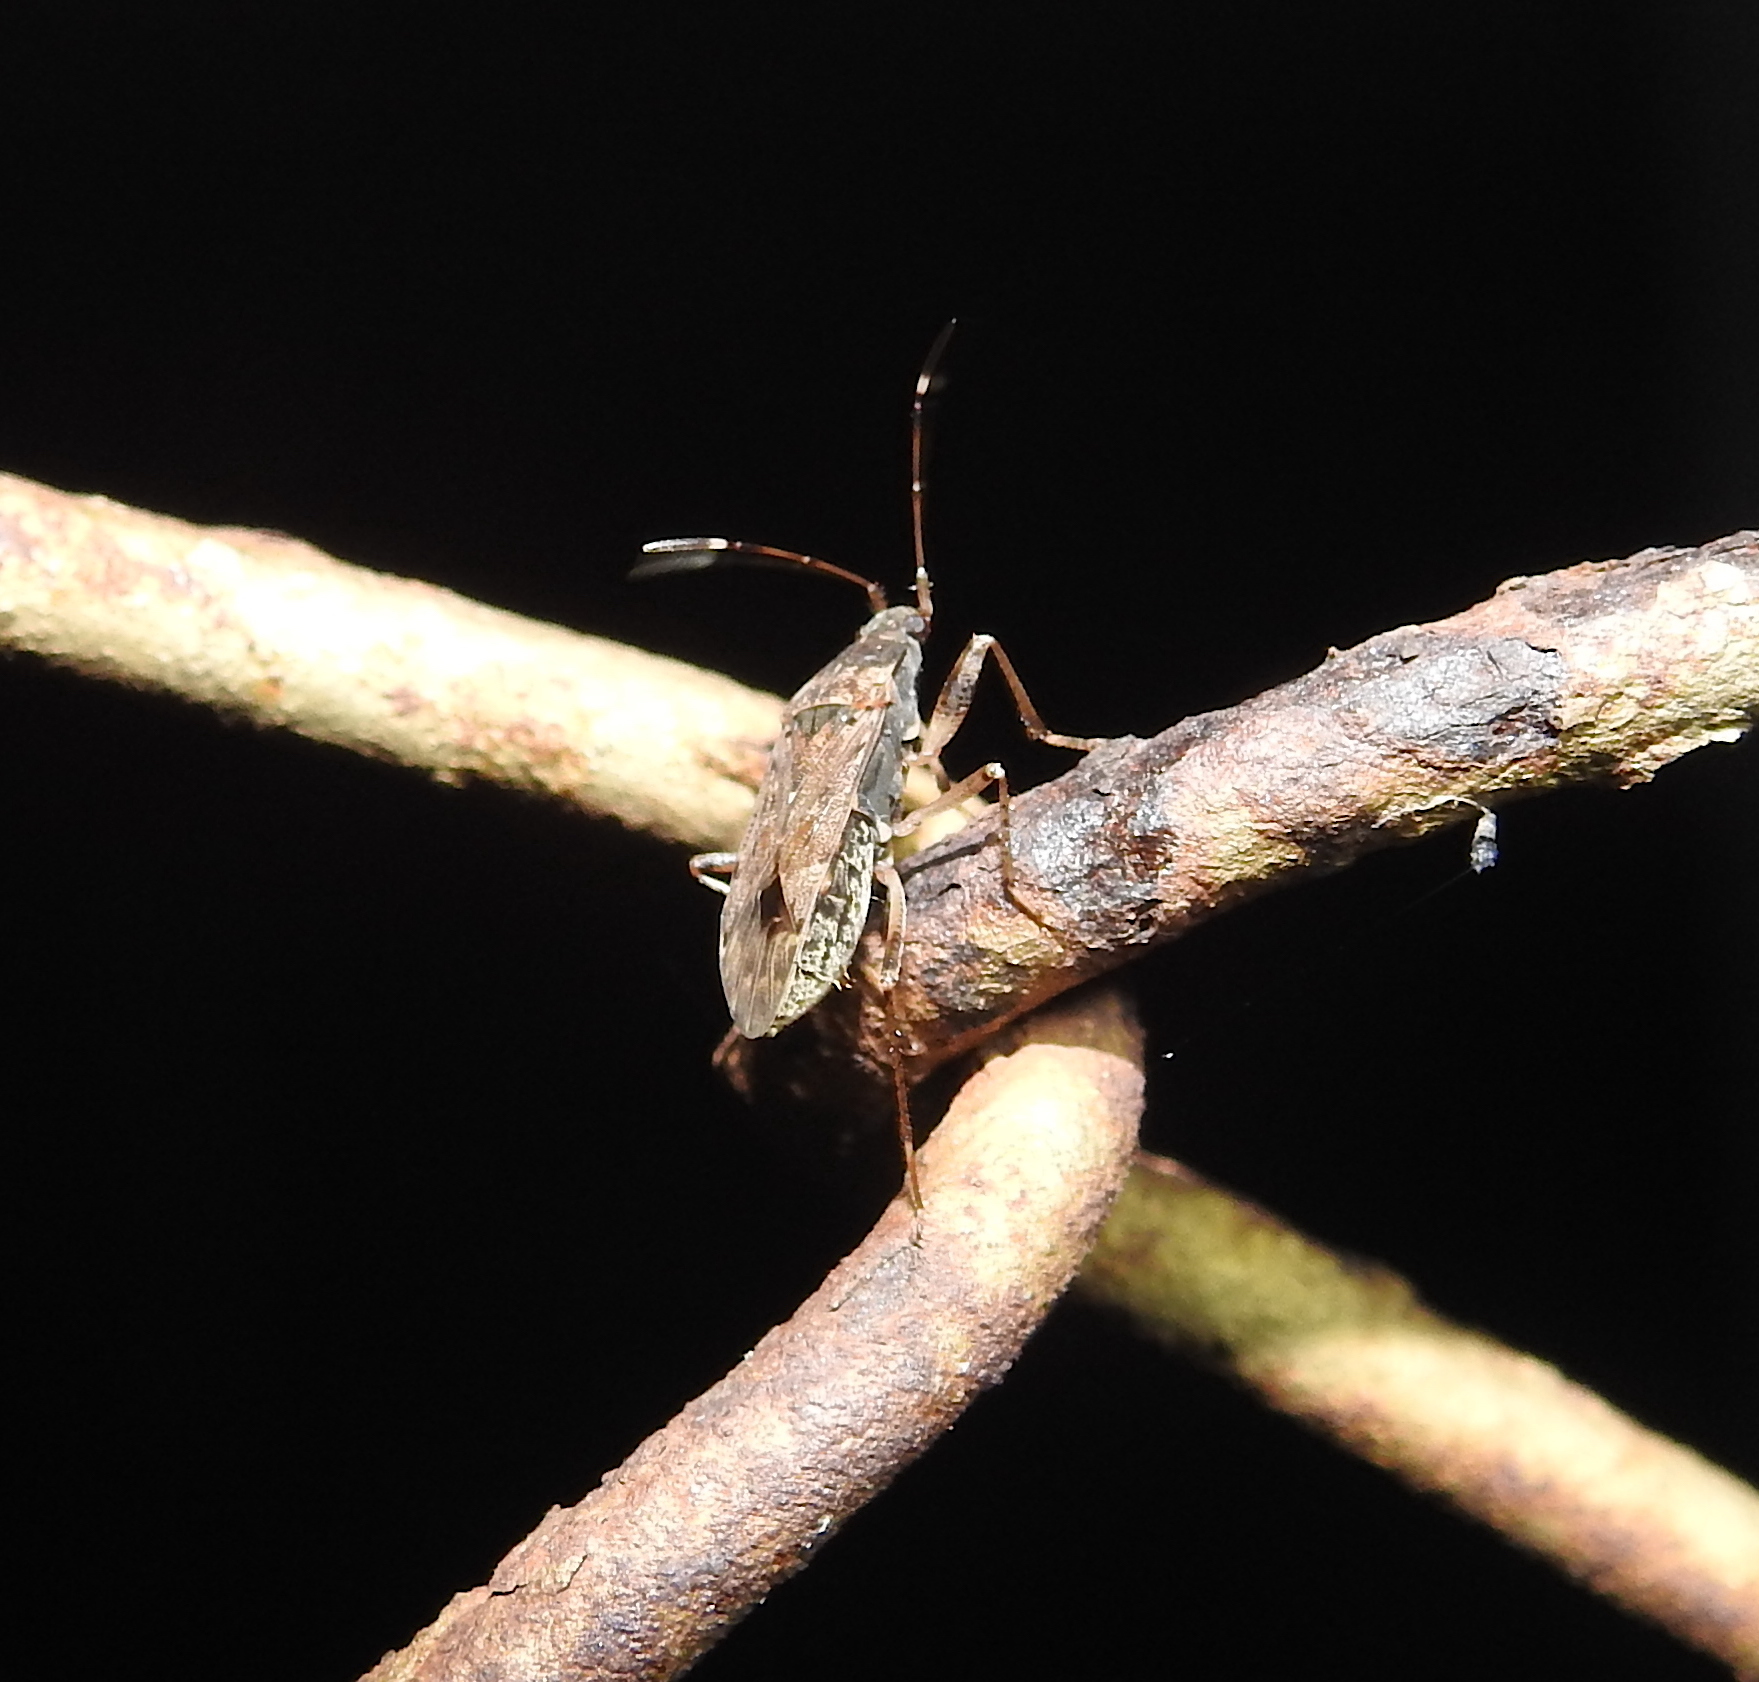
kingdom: Animalia
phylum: Arthropoda
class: Insecta
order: Hemiptera
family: Rhyparochromidae
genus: Elasmolomus
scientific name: Elasmolomus pallens
